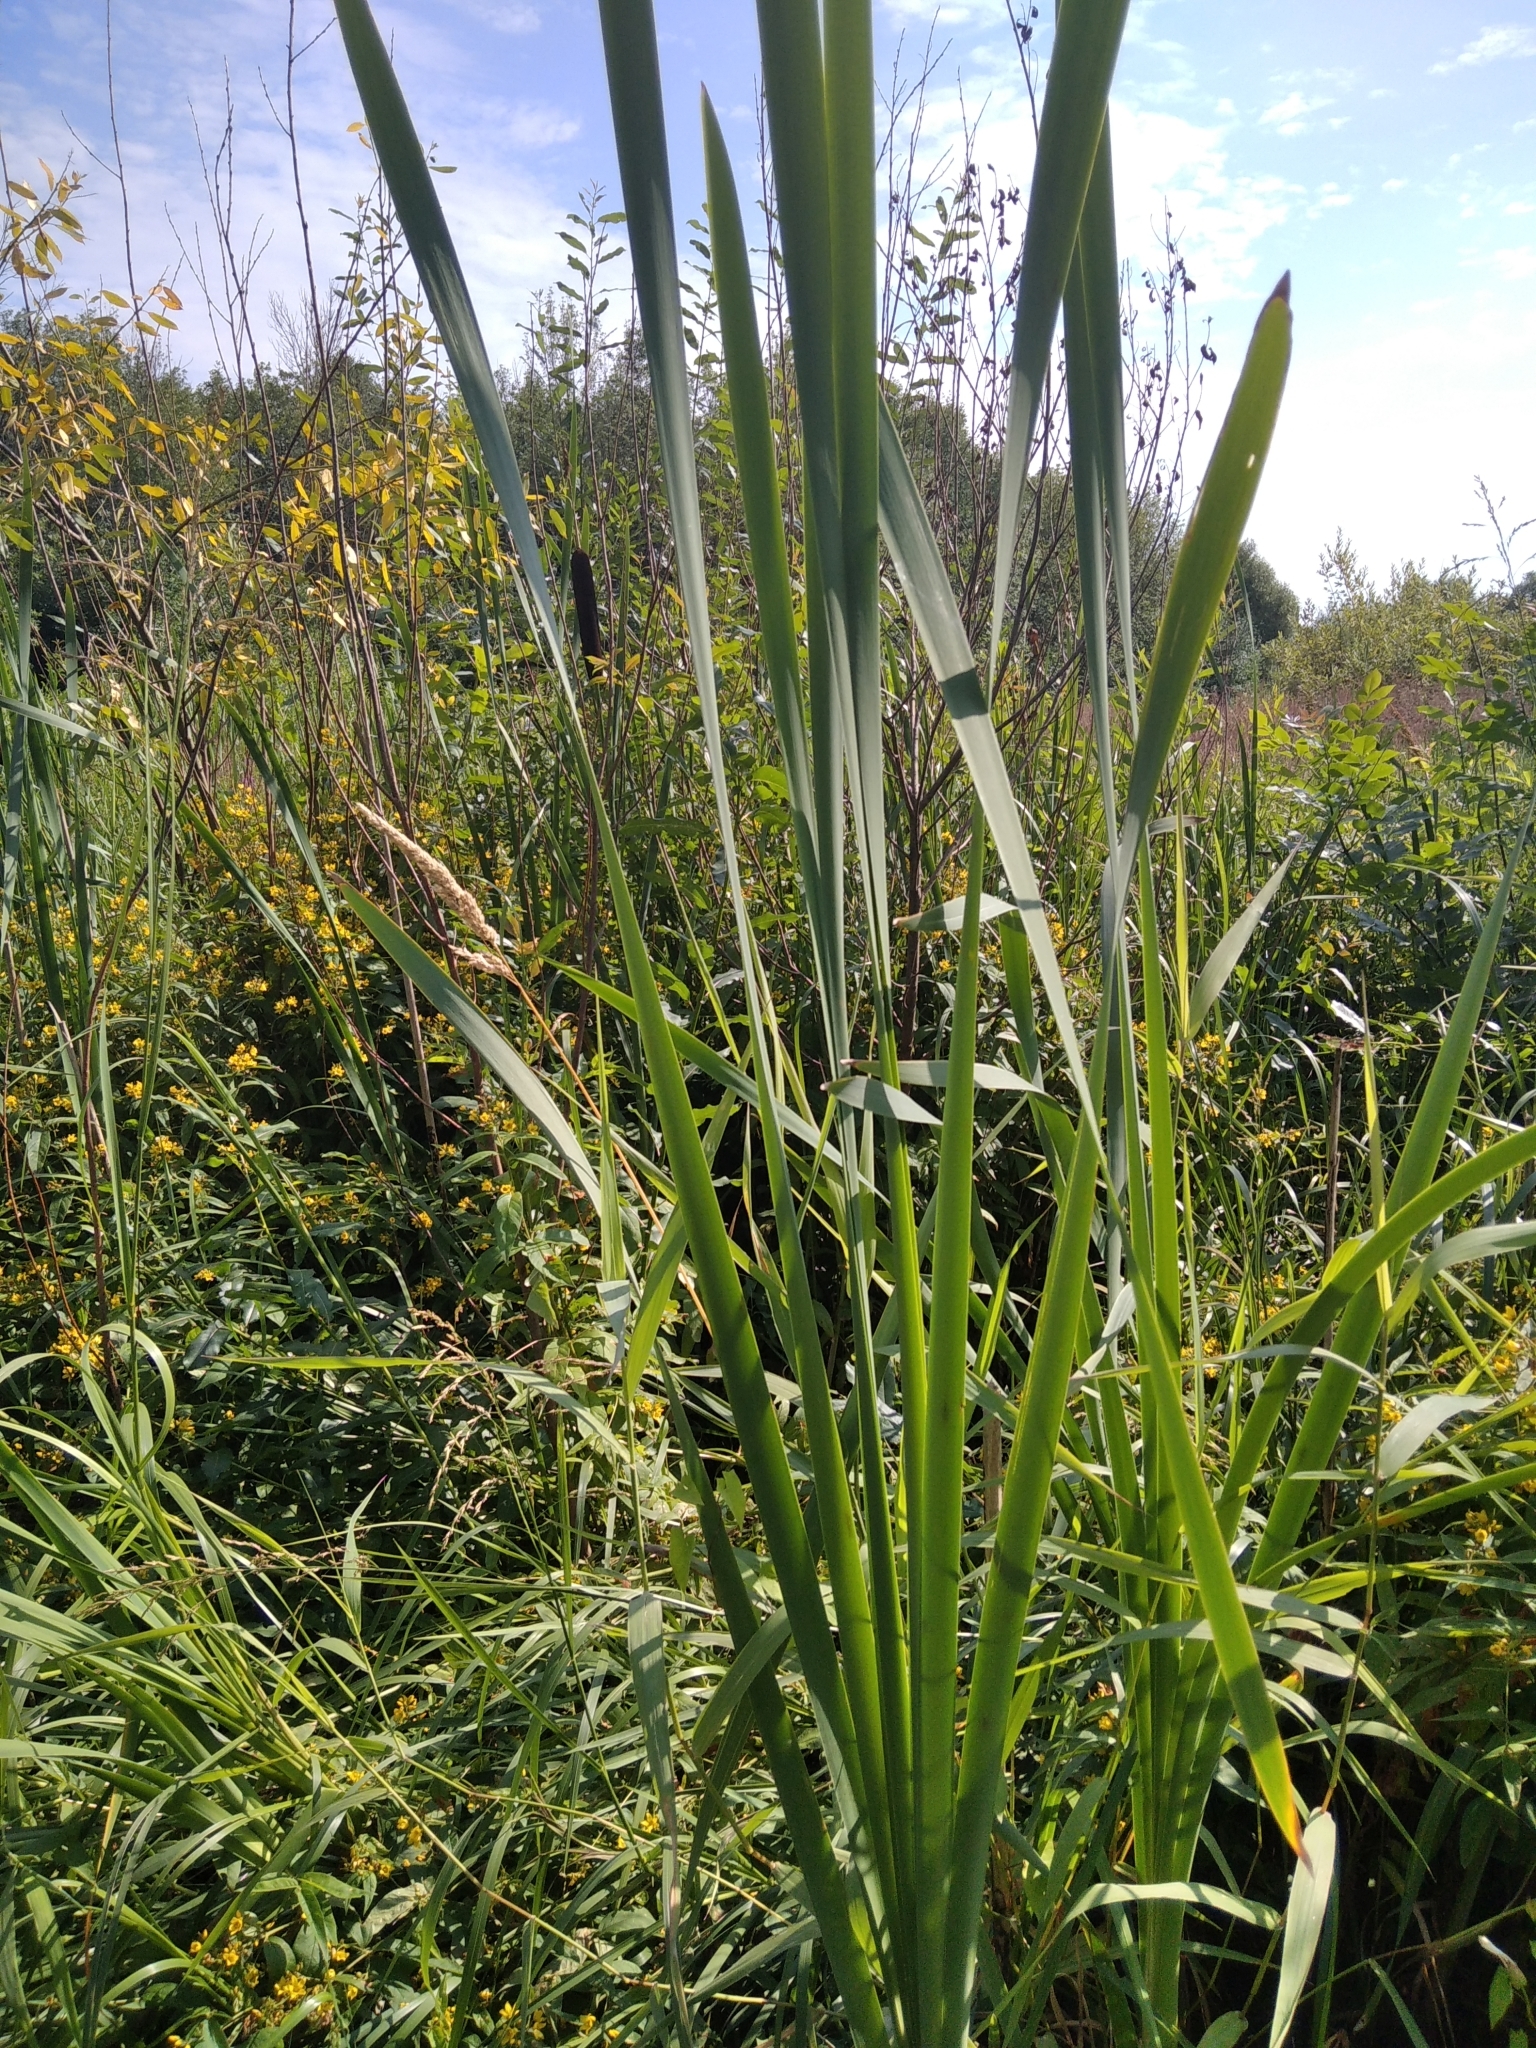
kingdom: Plantae
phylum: Tracheophyta
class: Liliopsida
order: Poales
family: Typhaceae
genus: Typha
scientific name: Typha latifolia
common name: Broadleaf cattail
